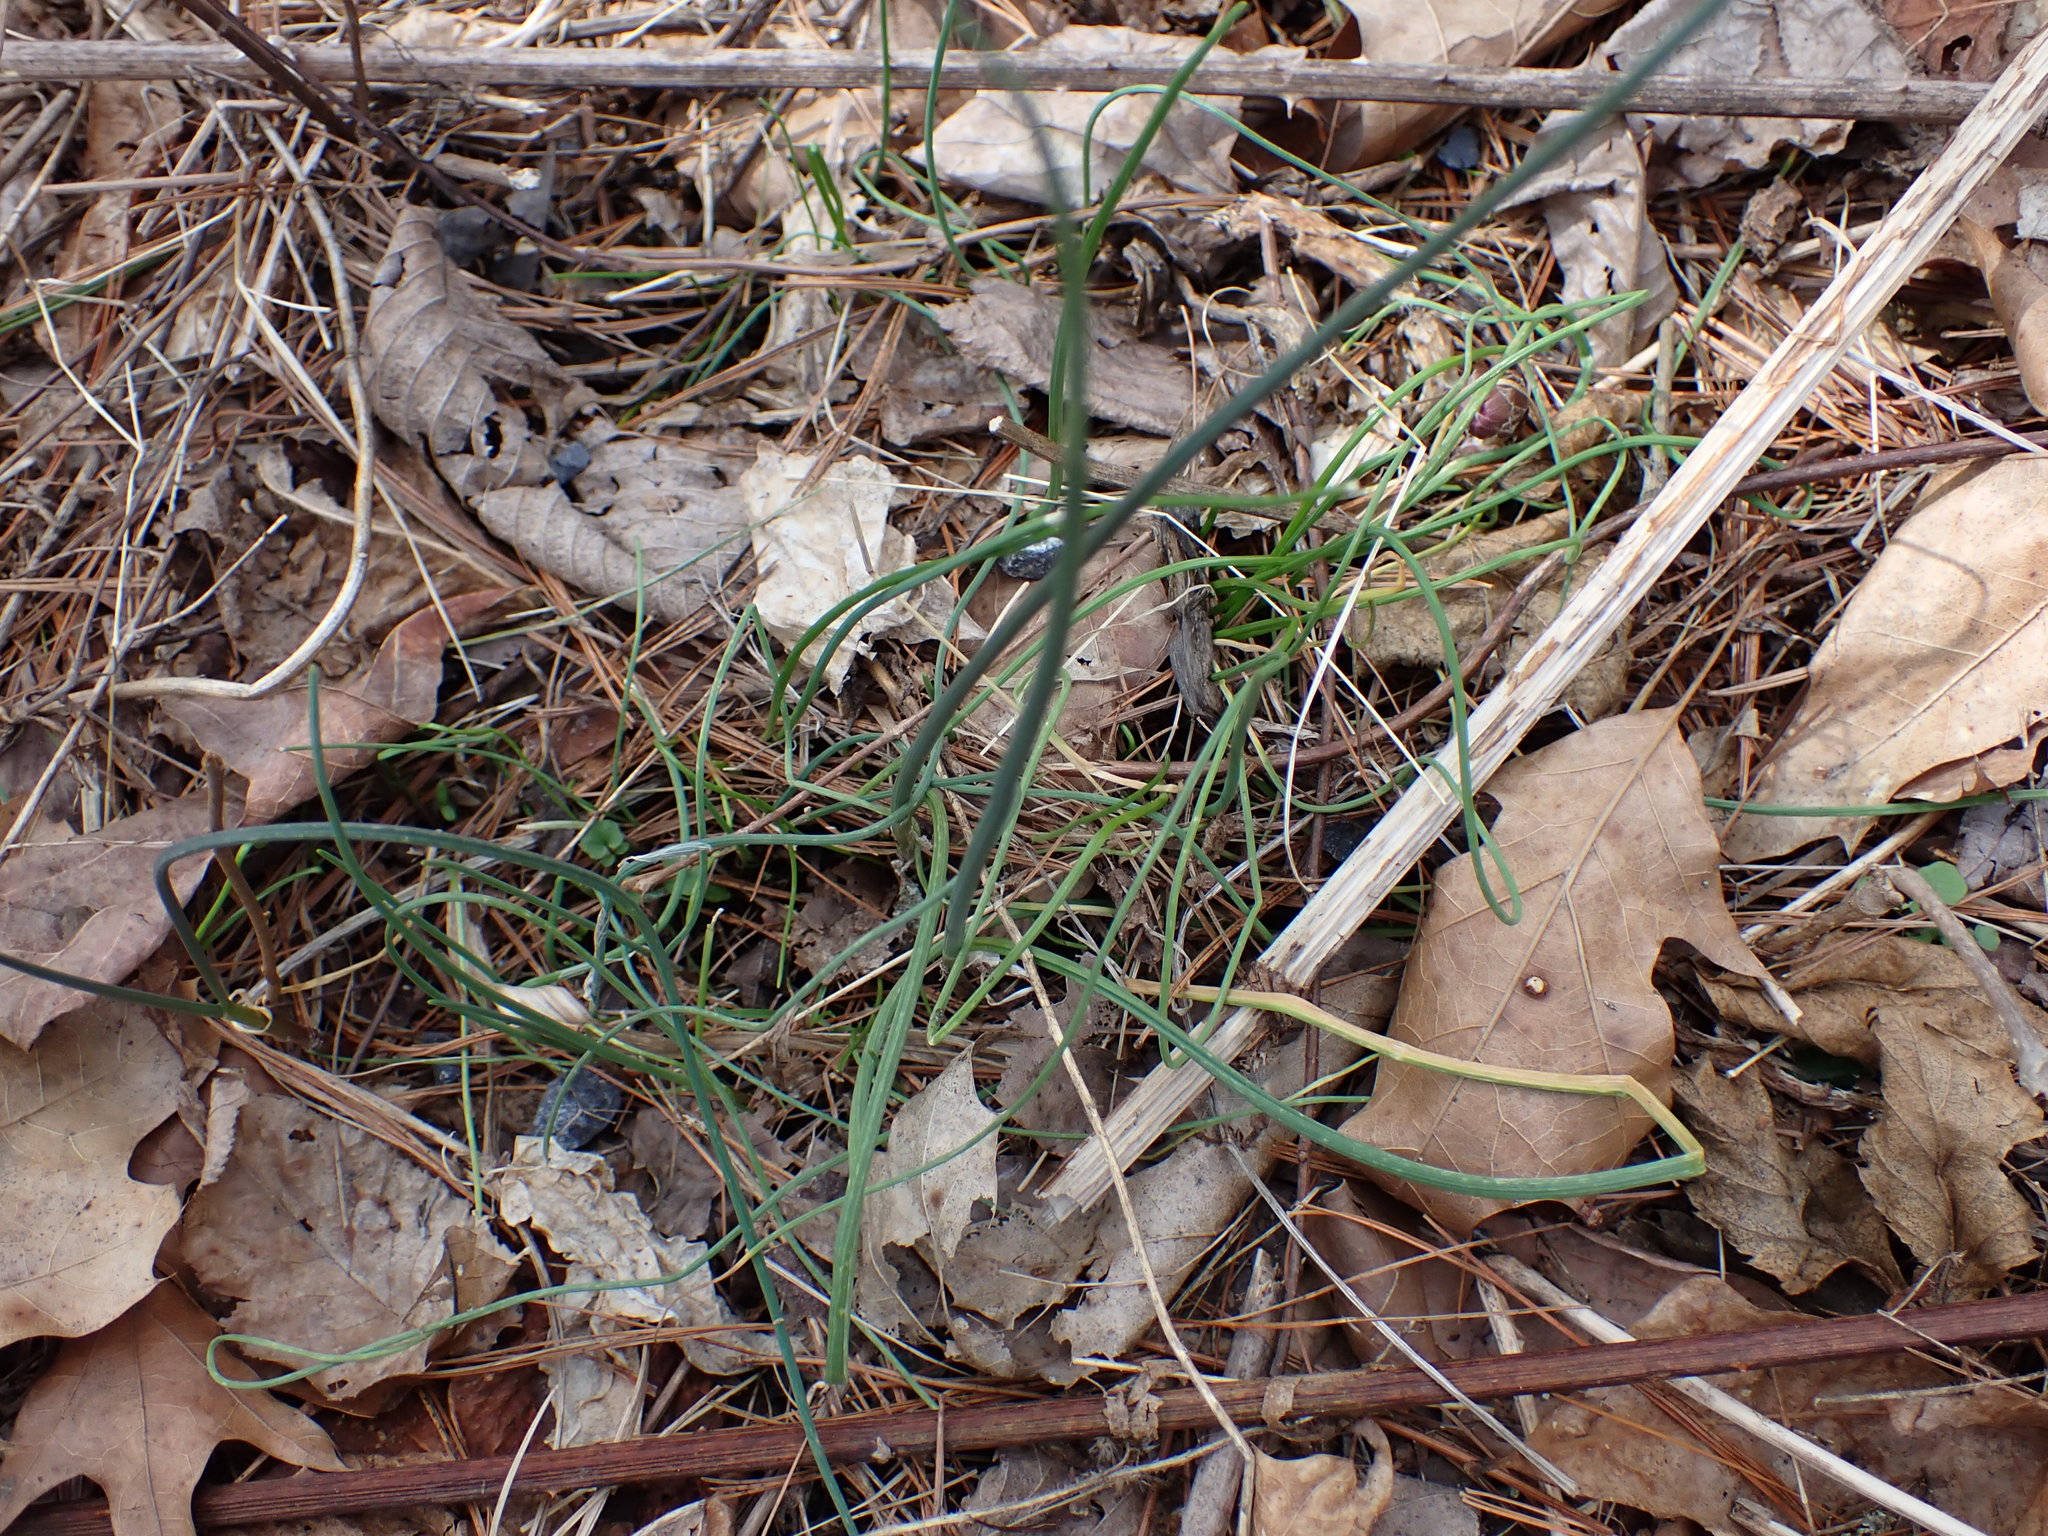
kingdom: Plantae
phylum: Tracheophyta
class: Liliopsida
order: Asparagales
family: Amaryllidaceae
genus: Allium
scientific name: Allium vineale
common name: Crow garlic
